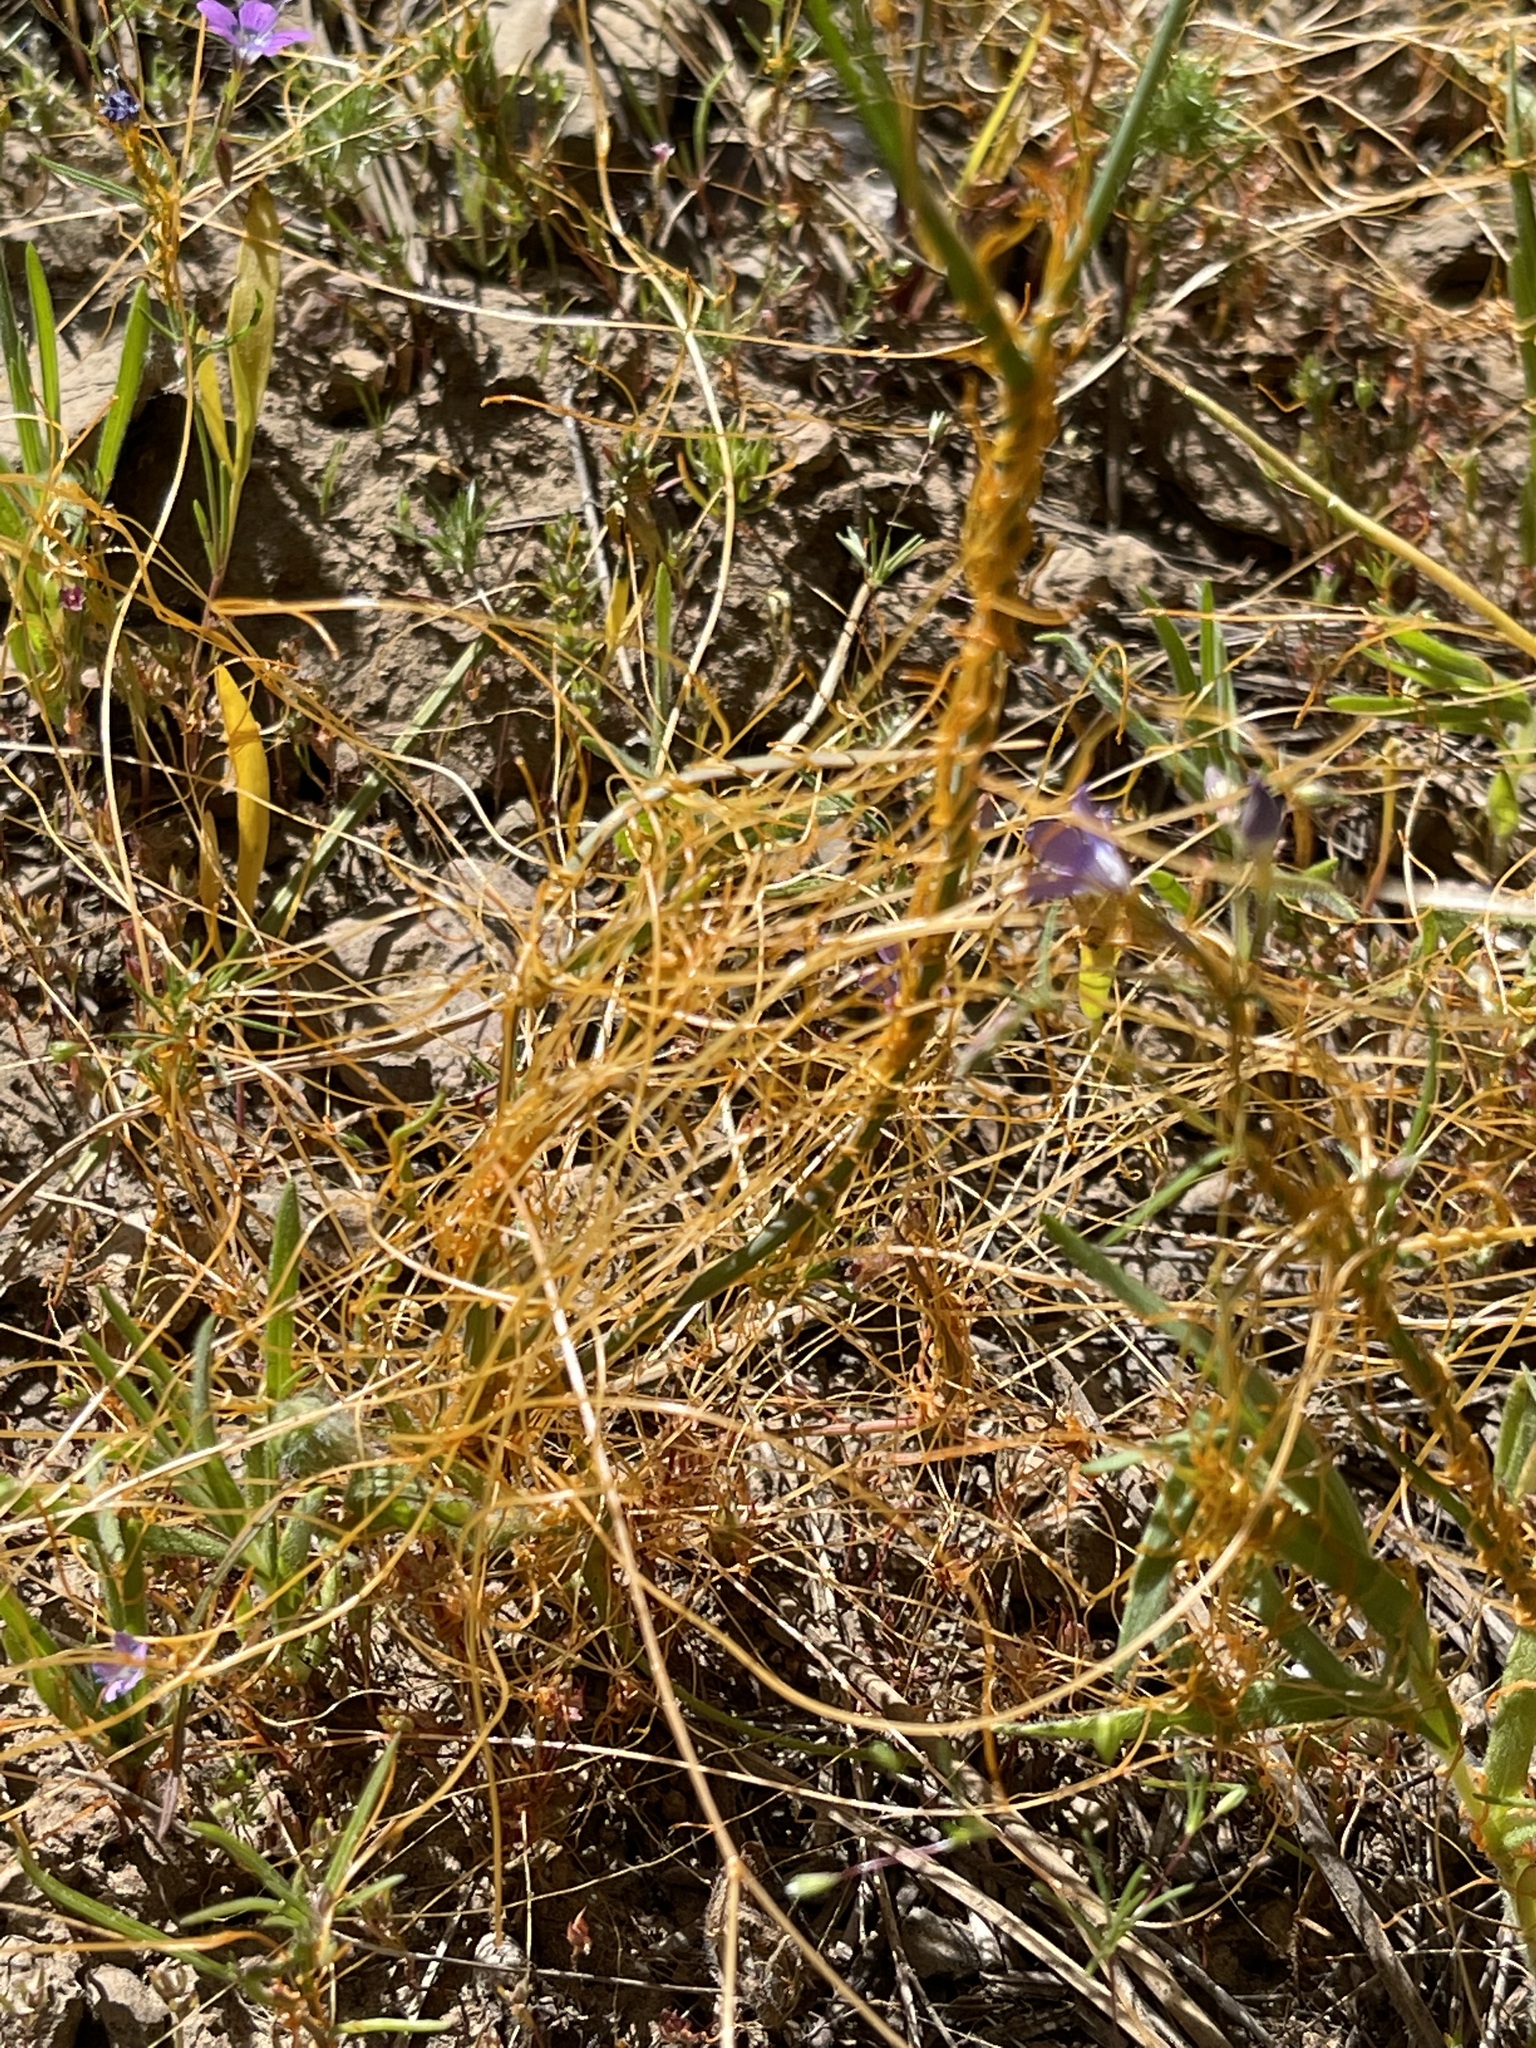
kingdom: Plantae
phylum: Tracheophyta
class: Magnoliopsida
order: Solanales
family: Convolvulaceae
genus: Cuscuta
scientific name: Cuscuta californica
